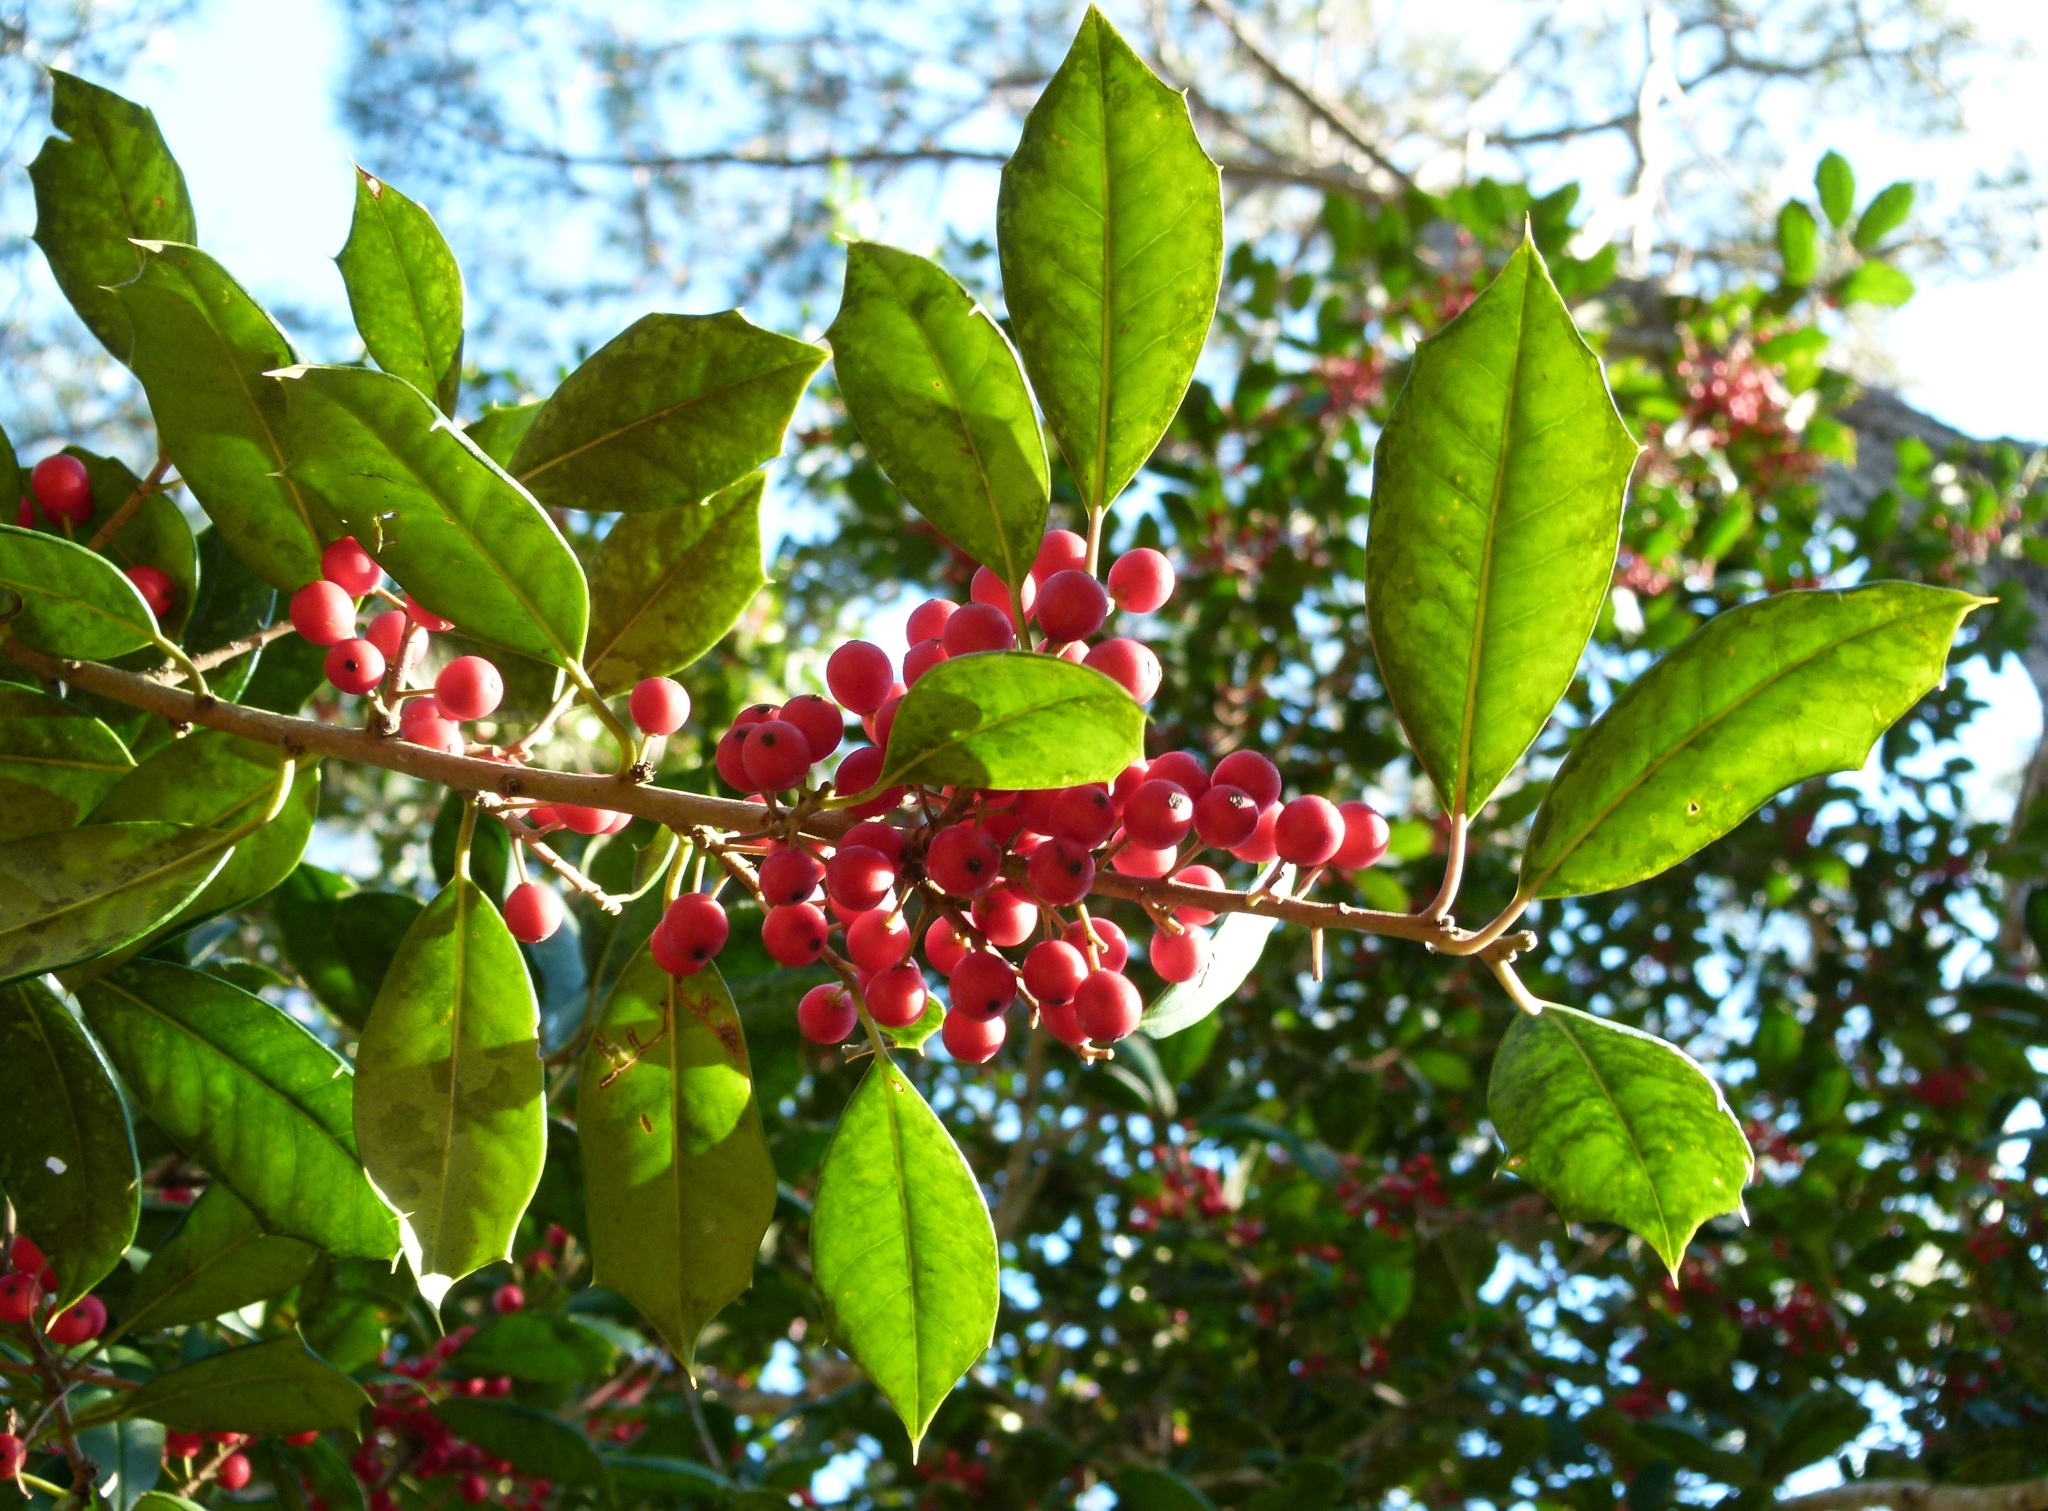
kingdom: Plantae
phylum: Tracheophyta
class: Magnoliopsida
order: Aquifoliales
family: Aquifoliaceae
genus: Ilex
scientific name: Ilex opaca
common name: American holly
